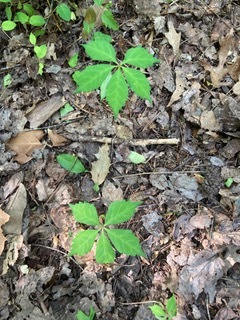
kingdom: Plantae
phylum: Tracheophyta
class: Magnoliopsida
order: Vitales
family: Vitaceae
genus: Parthenocissus
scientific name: Parthenocissus quinquefolia
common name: Virginia-creeper
